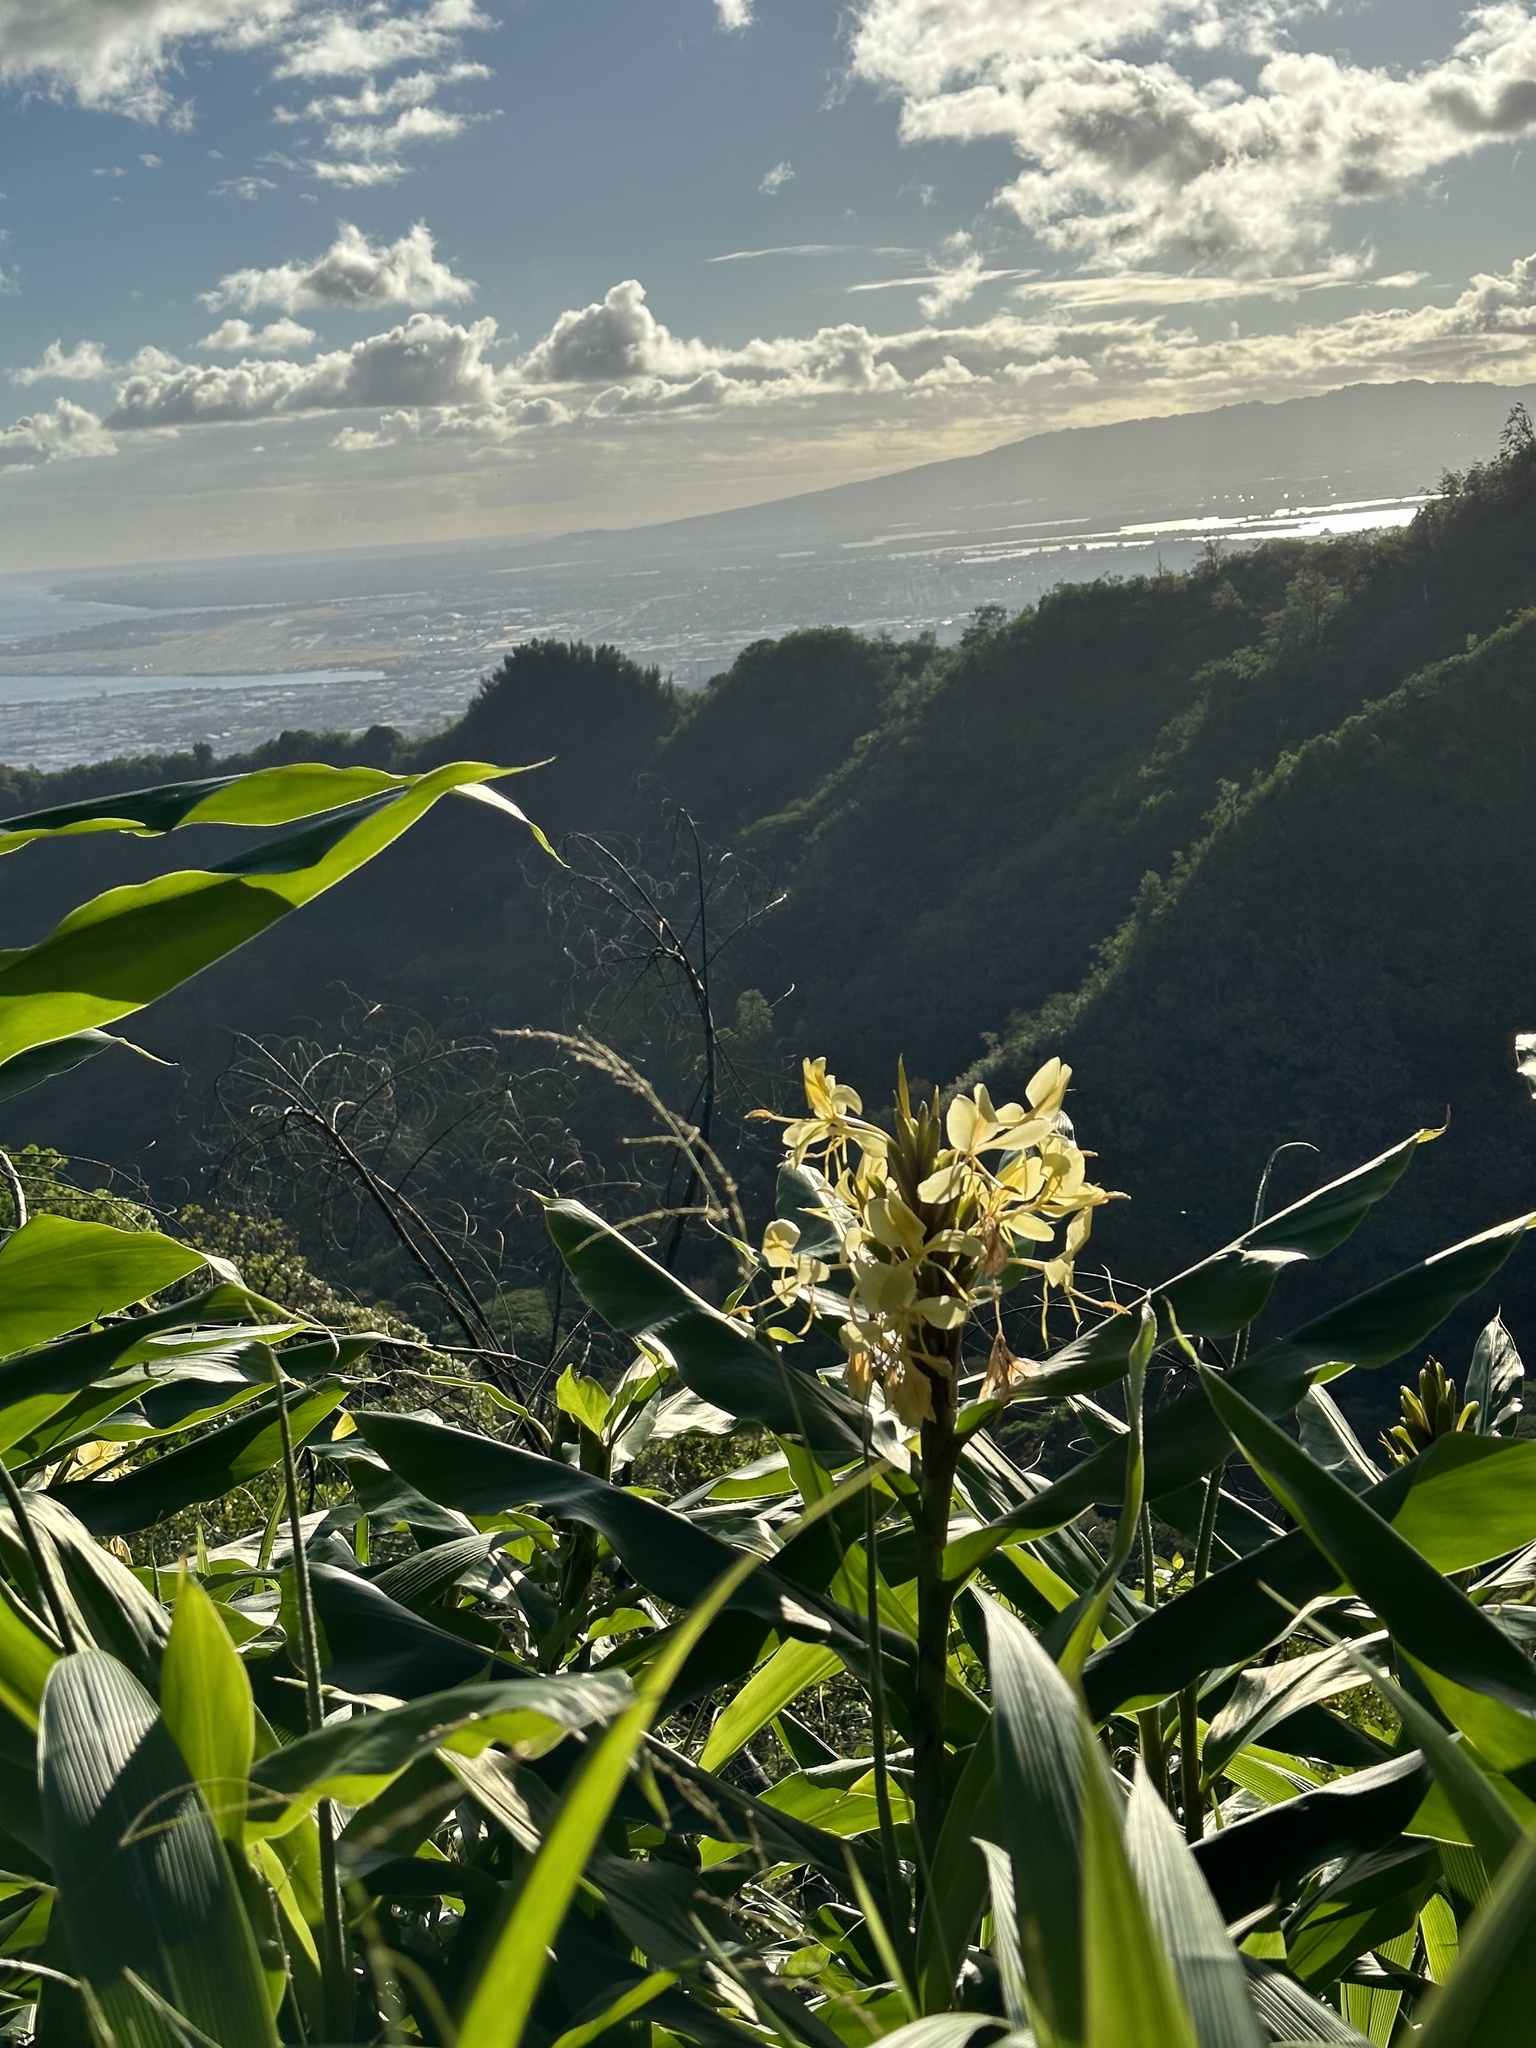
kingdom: Plantae
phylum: Tracheophyta
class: Liliopsida
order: Zingiberales
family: Zingiberaceae
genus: Hedychium
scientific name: Hedychium flavescens
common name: Yellow ginger
